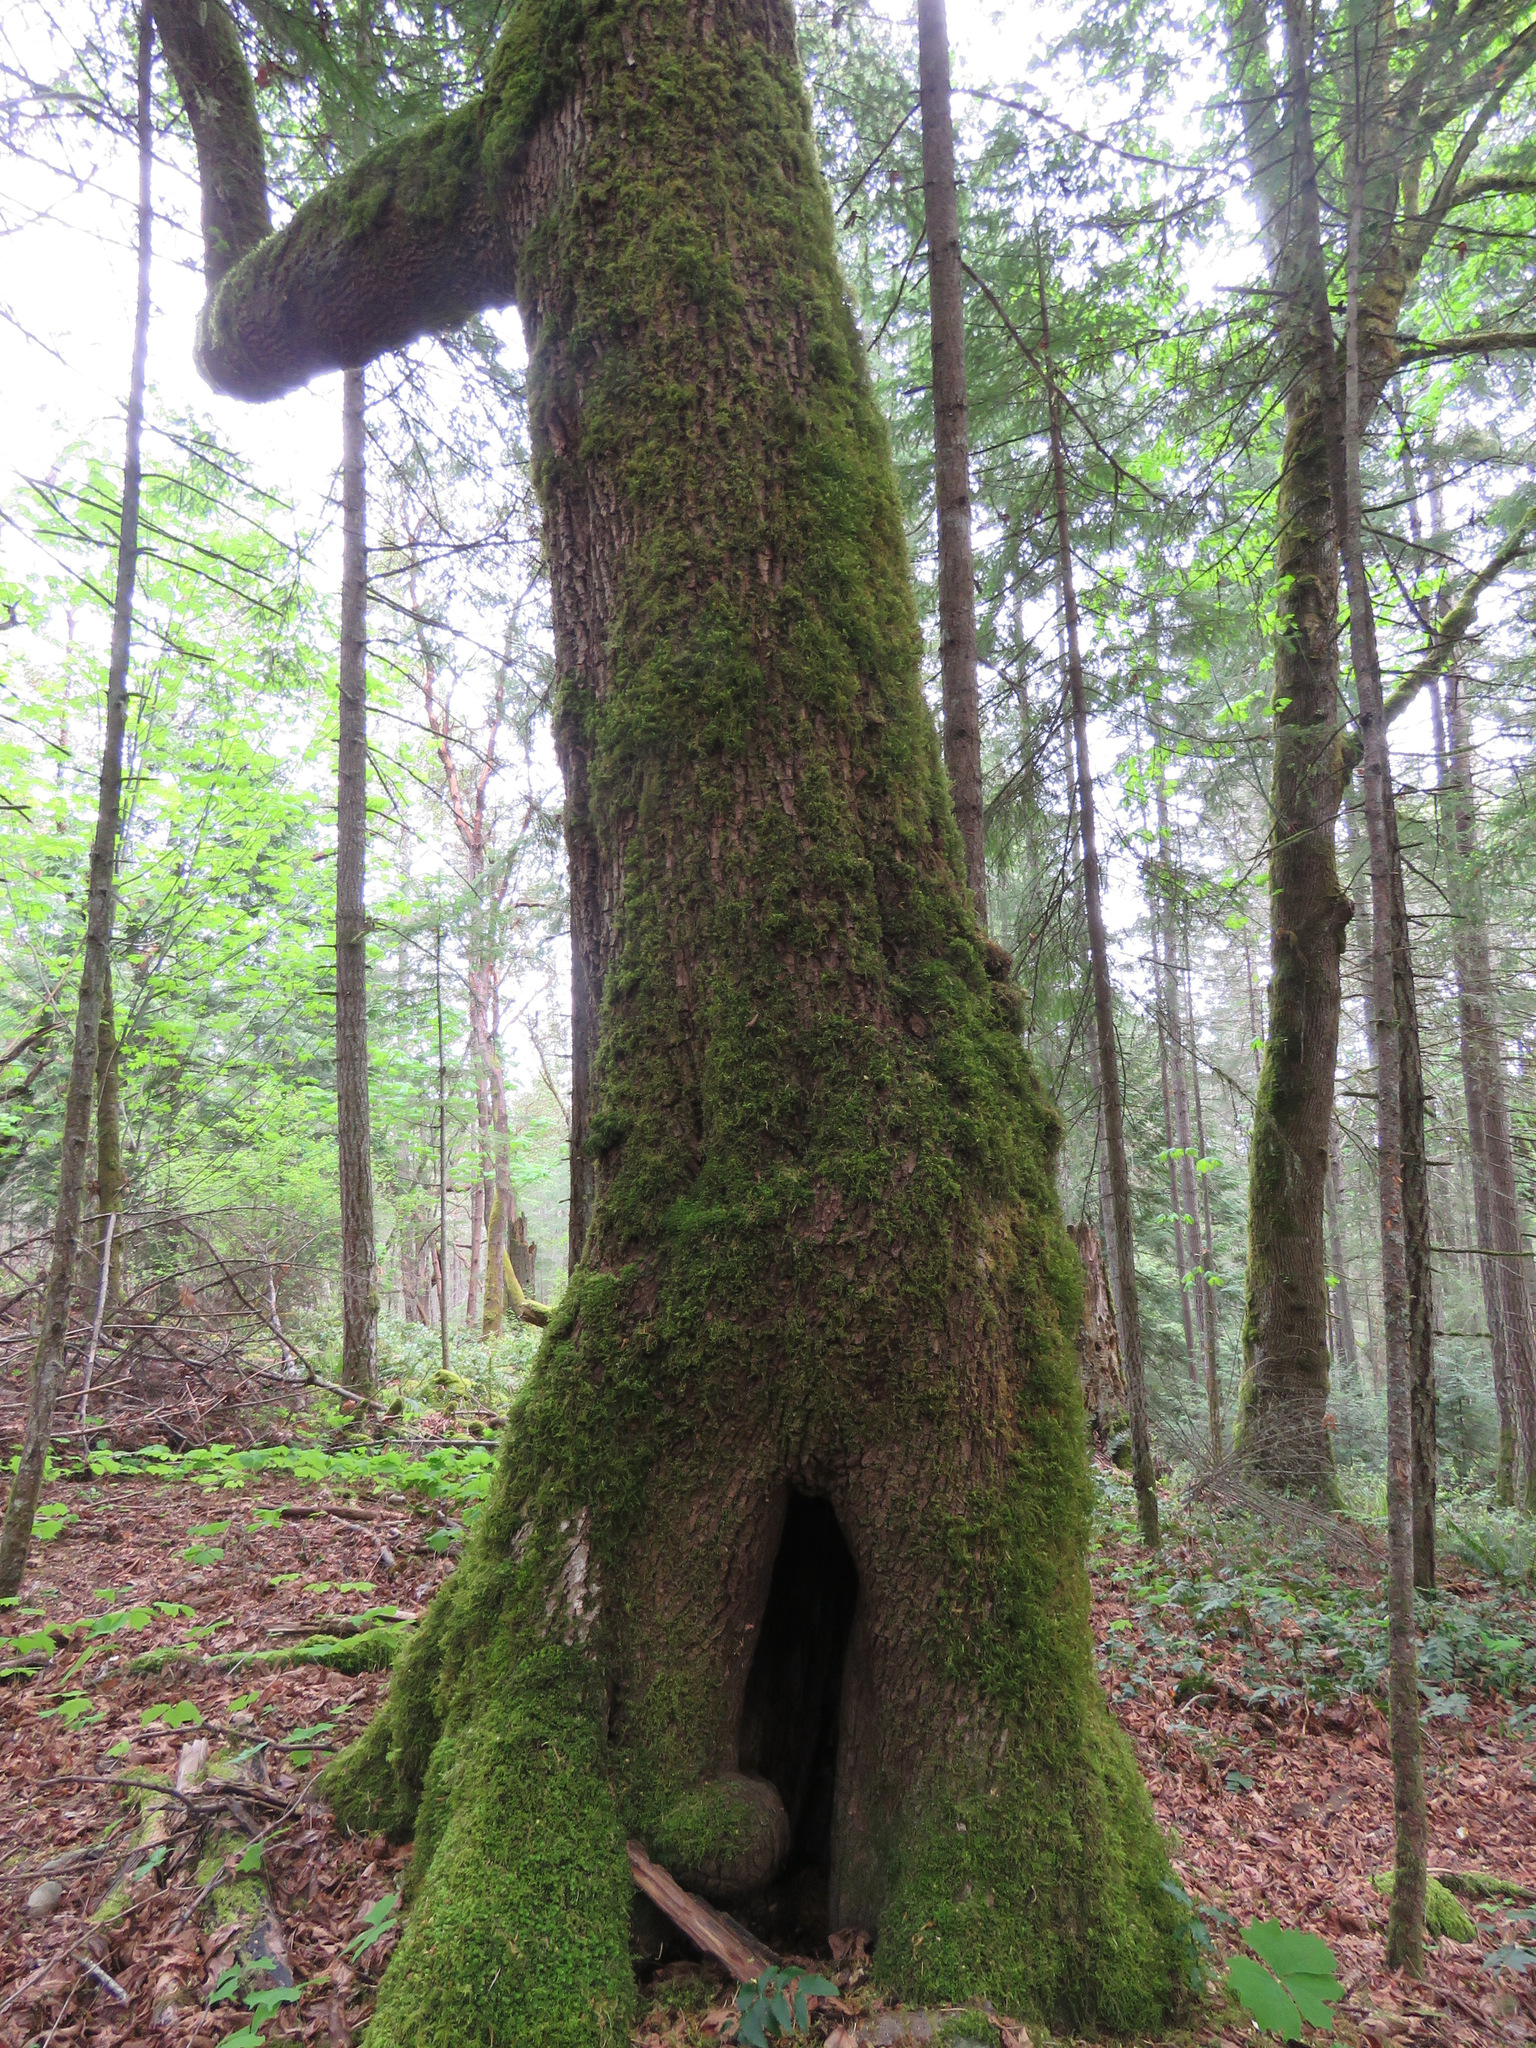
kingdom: Plantae
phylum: Tracheophyta
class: Magnoliopsida
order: Sapindales
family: Sapindaceae
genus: Acer
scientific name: Acer macrophyllum
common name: Oregon maple
